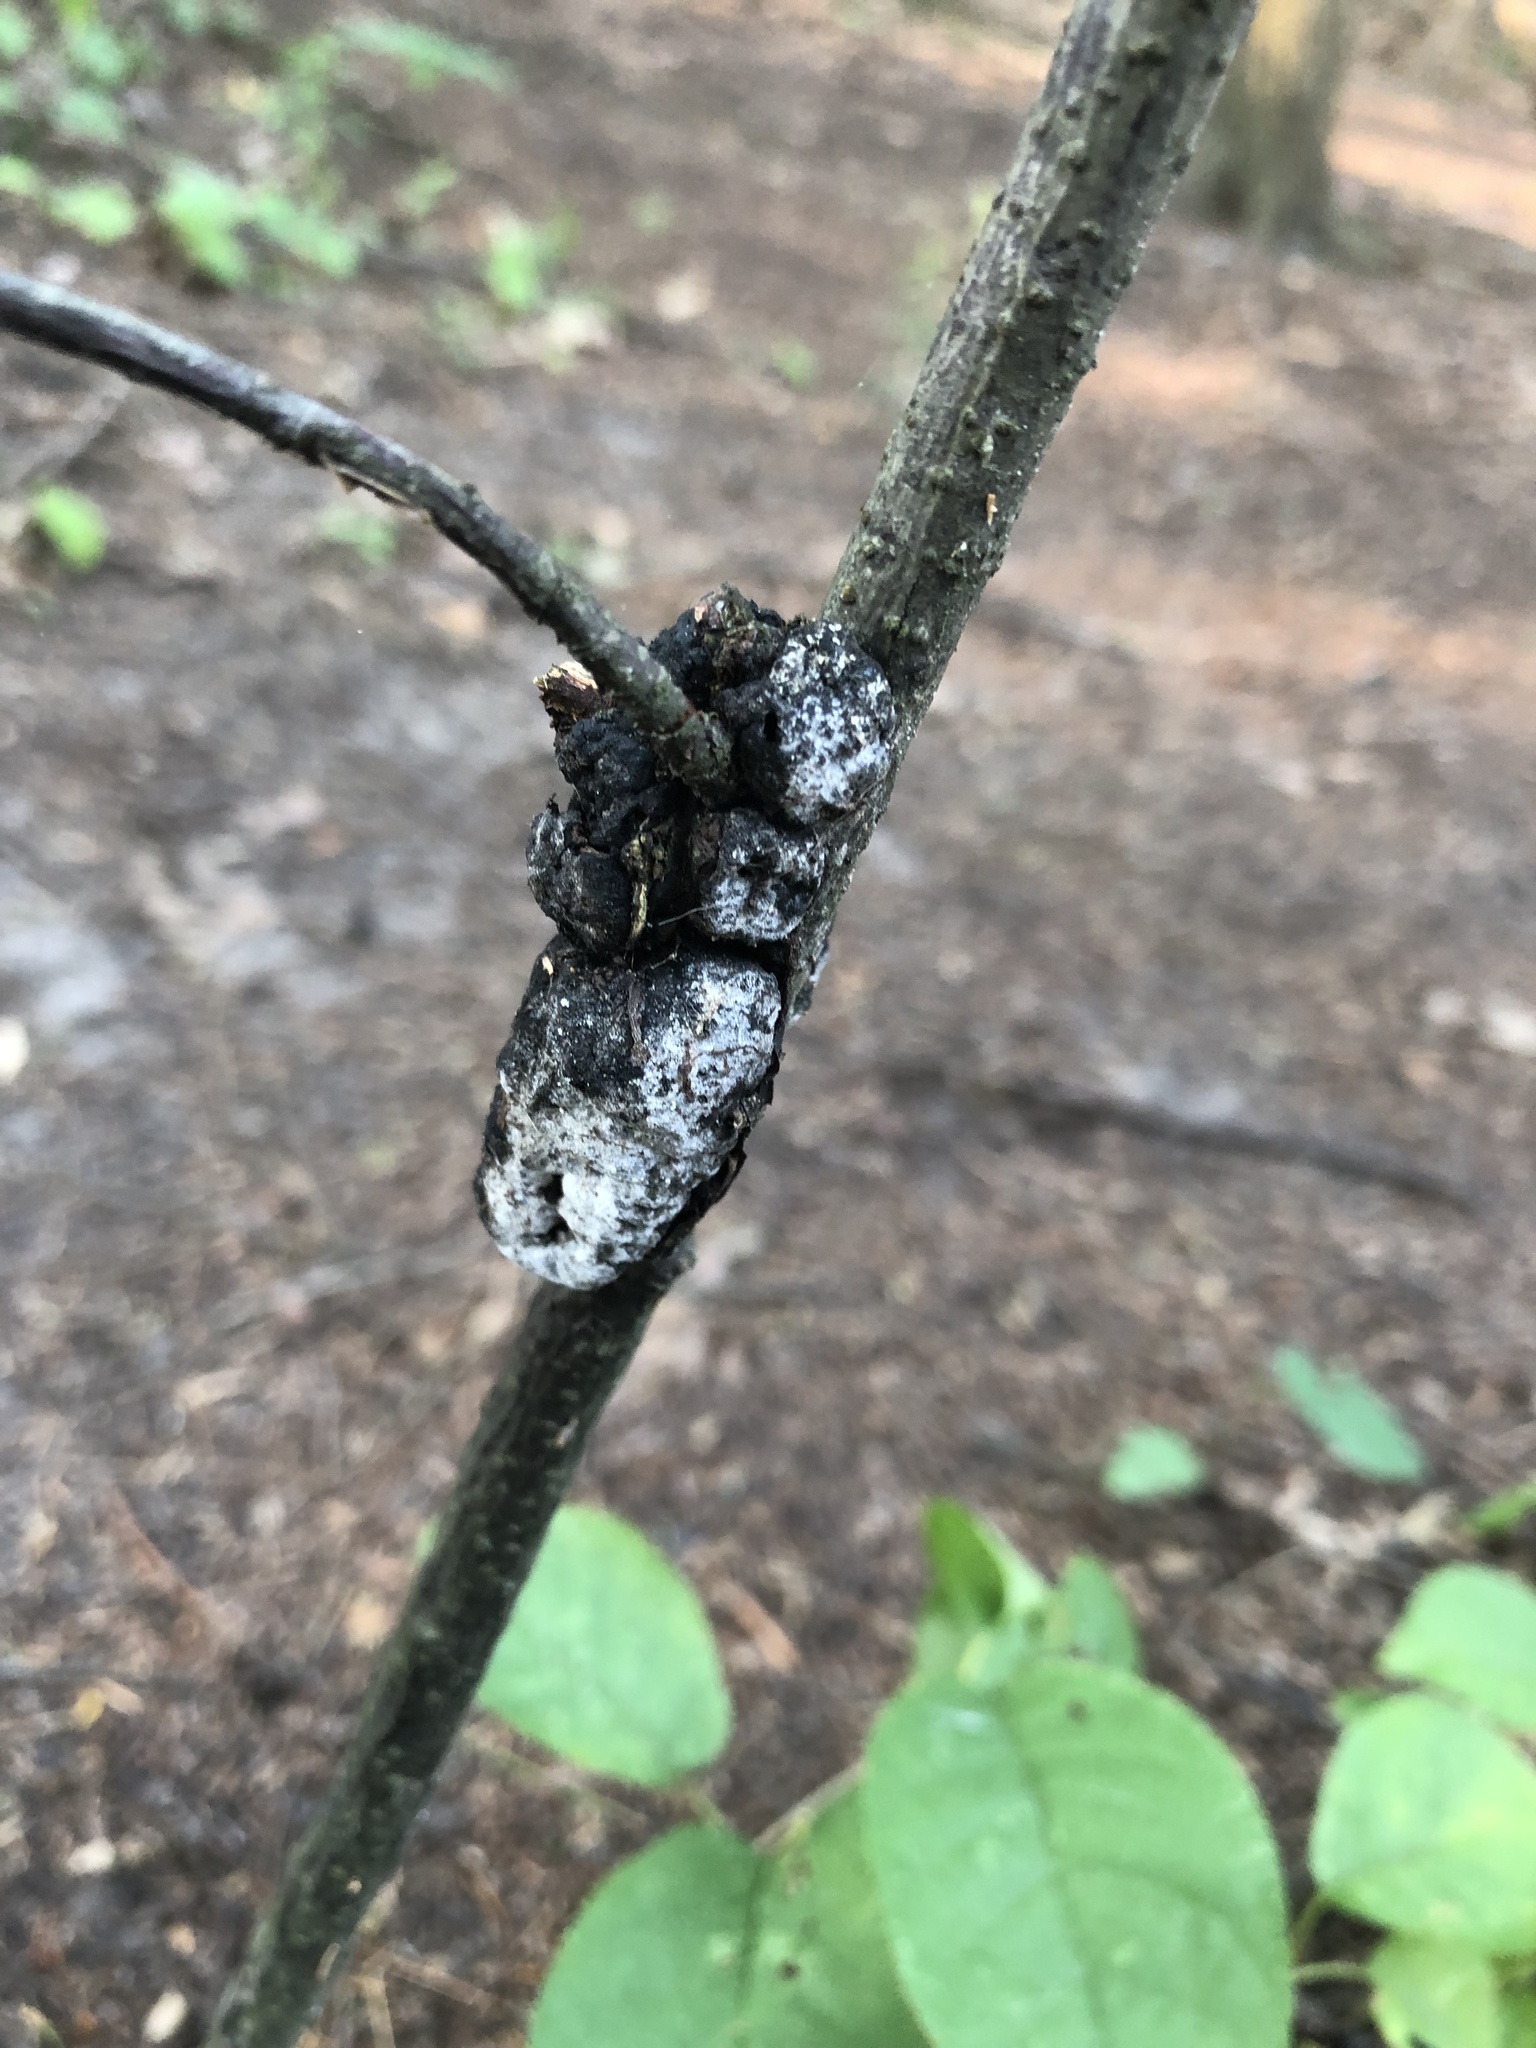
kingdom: Fungi
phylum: Ascomycota
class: Dothideomycetes
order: Venturiales
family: Venturiaceae
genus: Apiosporina
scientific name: Apiosporina morbosa
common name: Black knot
